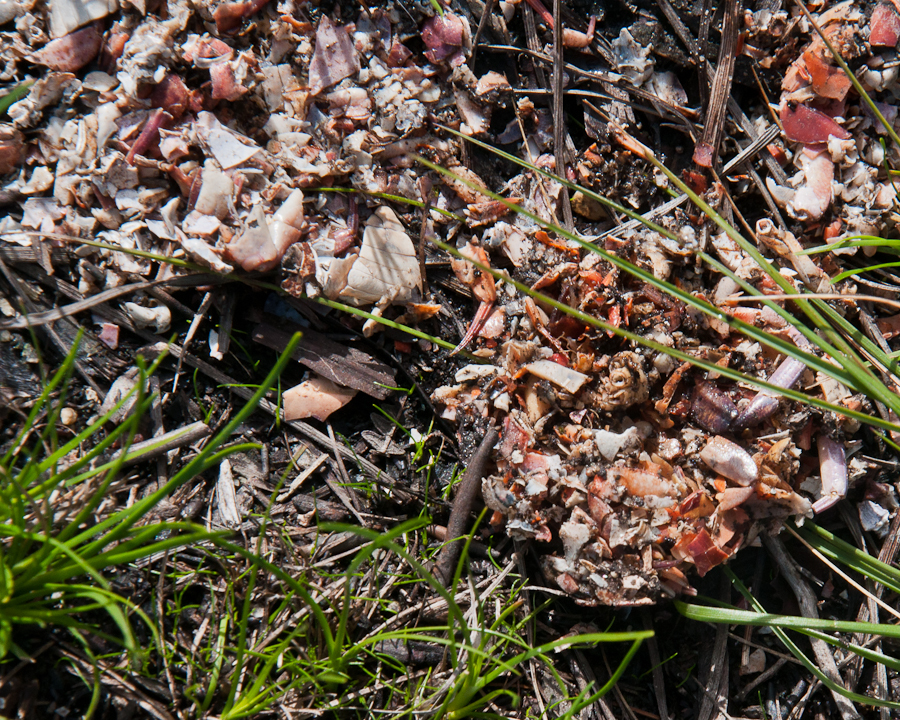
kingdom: Animalia
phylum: Chordata
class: Mammalia
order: Carnivora
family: Mustelidae
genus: Aonyx
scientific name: Aonyx capensis
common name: African clawless otter
